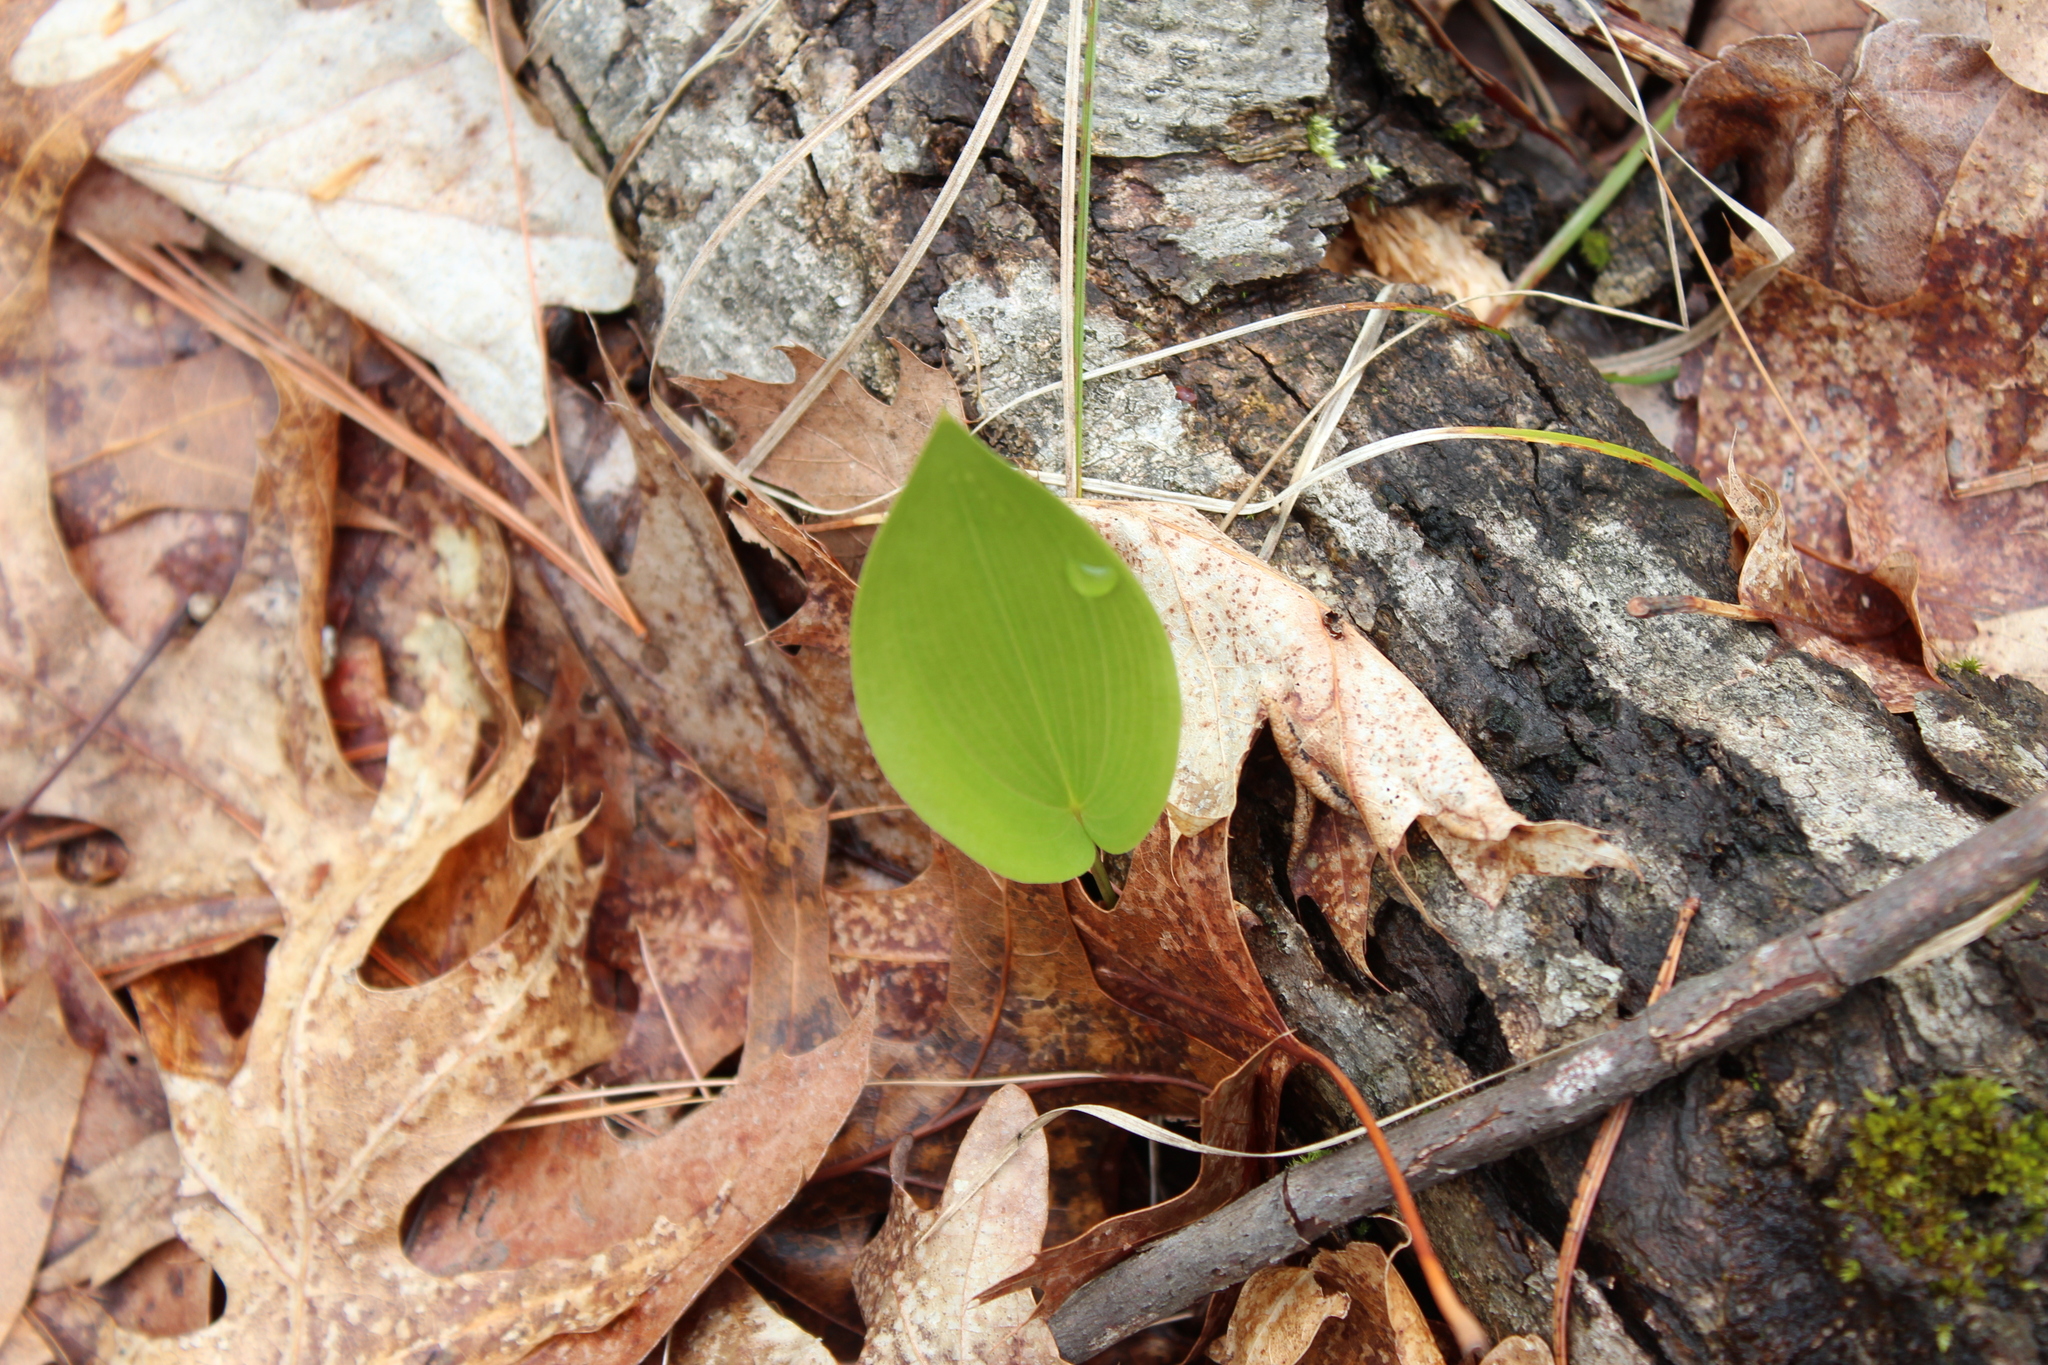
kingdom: Plantae
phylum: Tracheophyta
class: Liliopsida
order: Asparagales
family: Asparagaceae
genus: Maianthemum
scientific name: Maianthemum canadense
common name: False lily-of-the-valley
